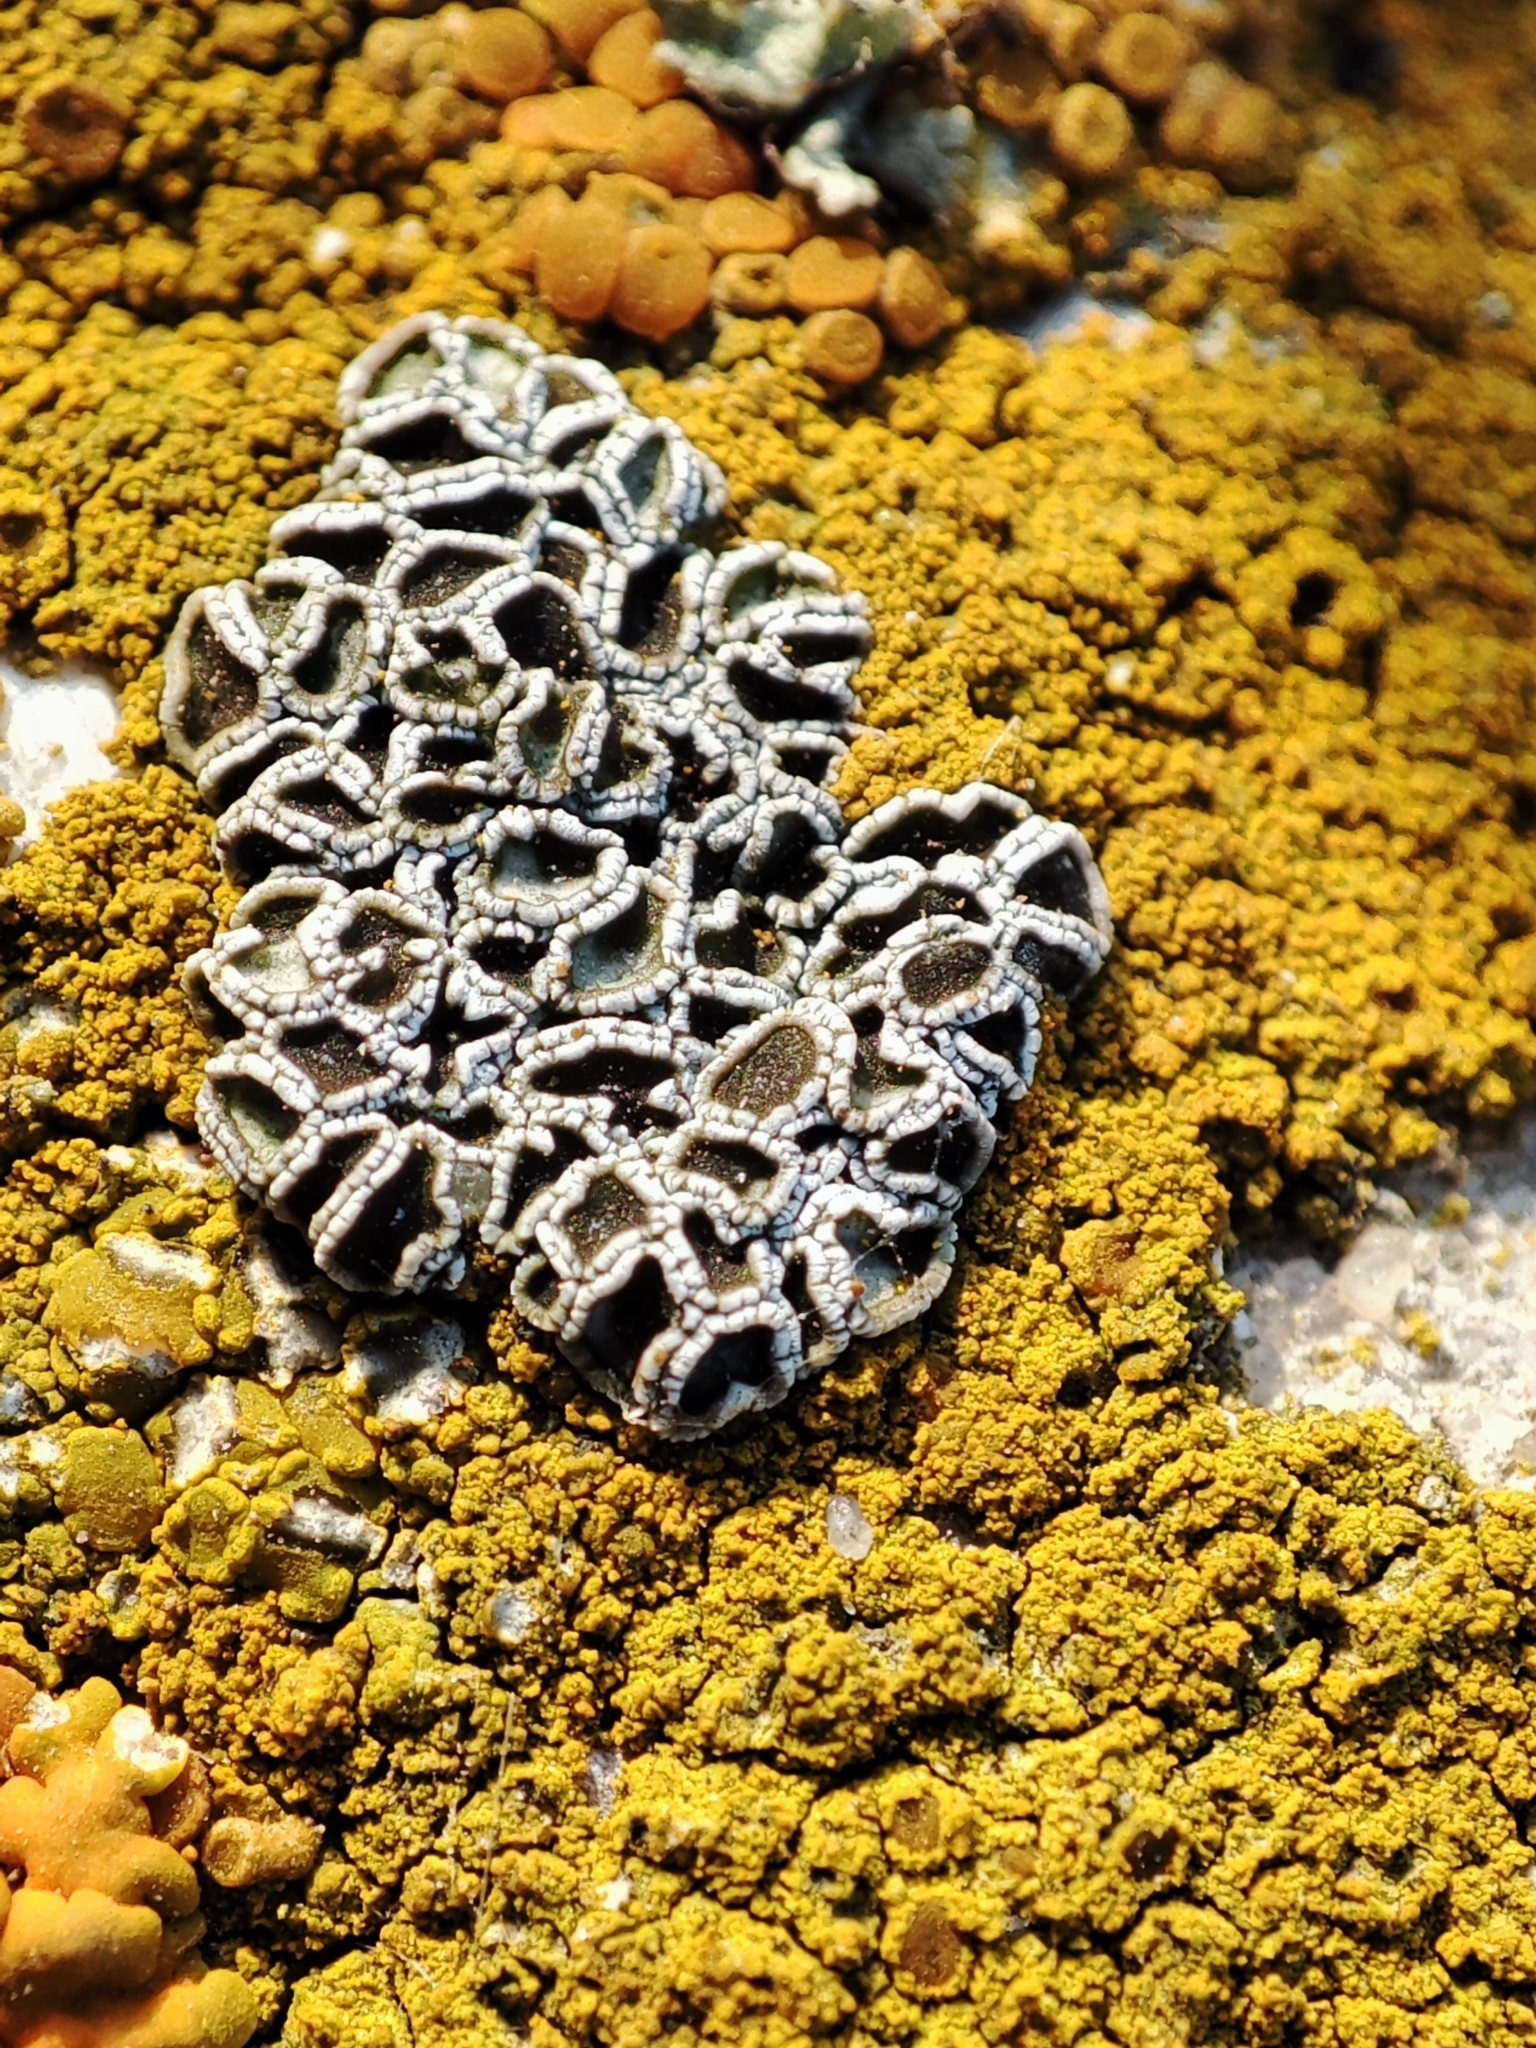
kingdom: Fungi
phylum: Ascomycota
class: Lecanoromycetes
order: Lecanorales
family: Lecanoraceae
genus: Polyozosia
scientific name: Polyozosia dispersa
